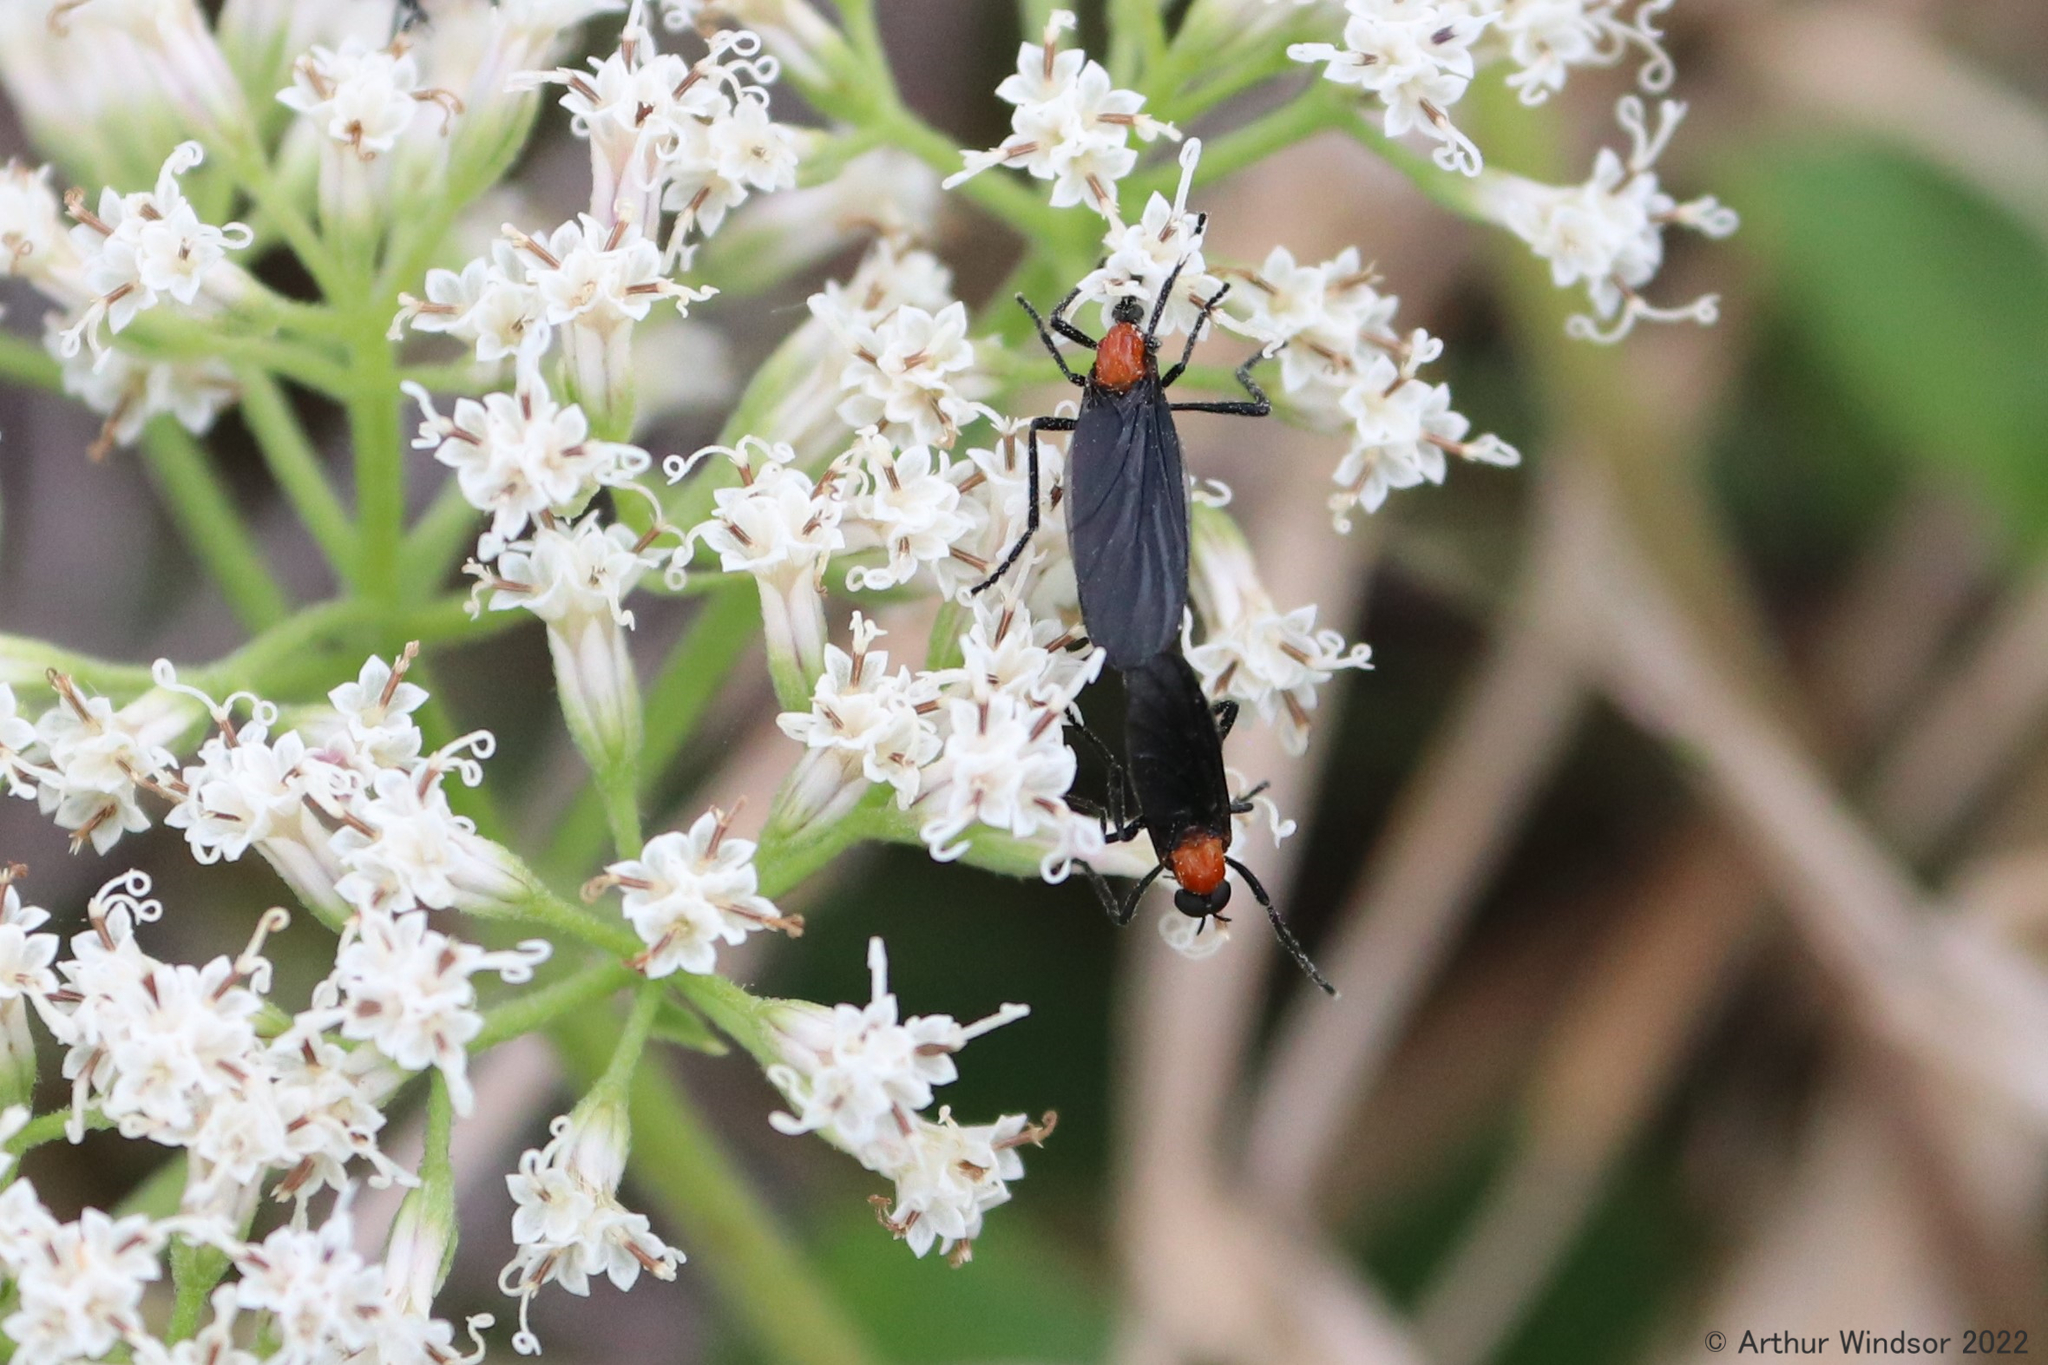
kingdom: Animalia
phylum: Arthropoda
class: Insecta
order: Diptera
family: Bibionidae
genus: Plecia
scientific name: Plecia nearctica
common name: March fly
